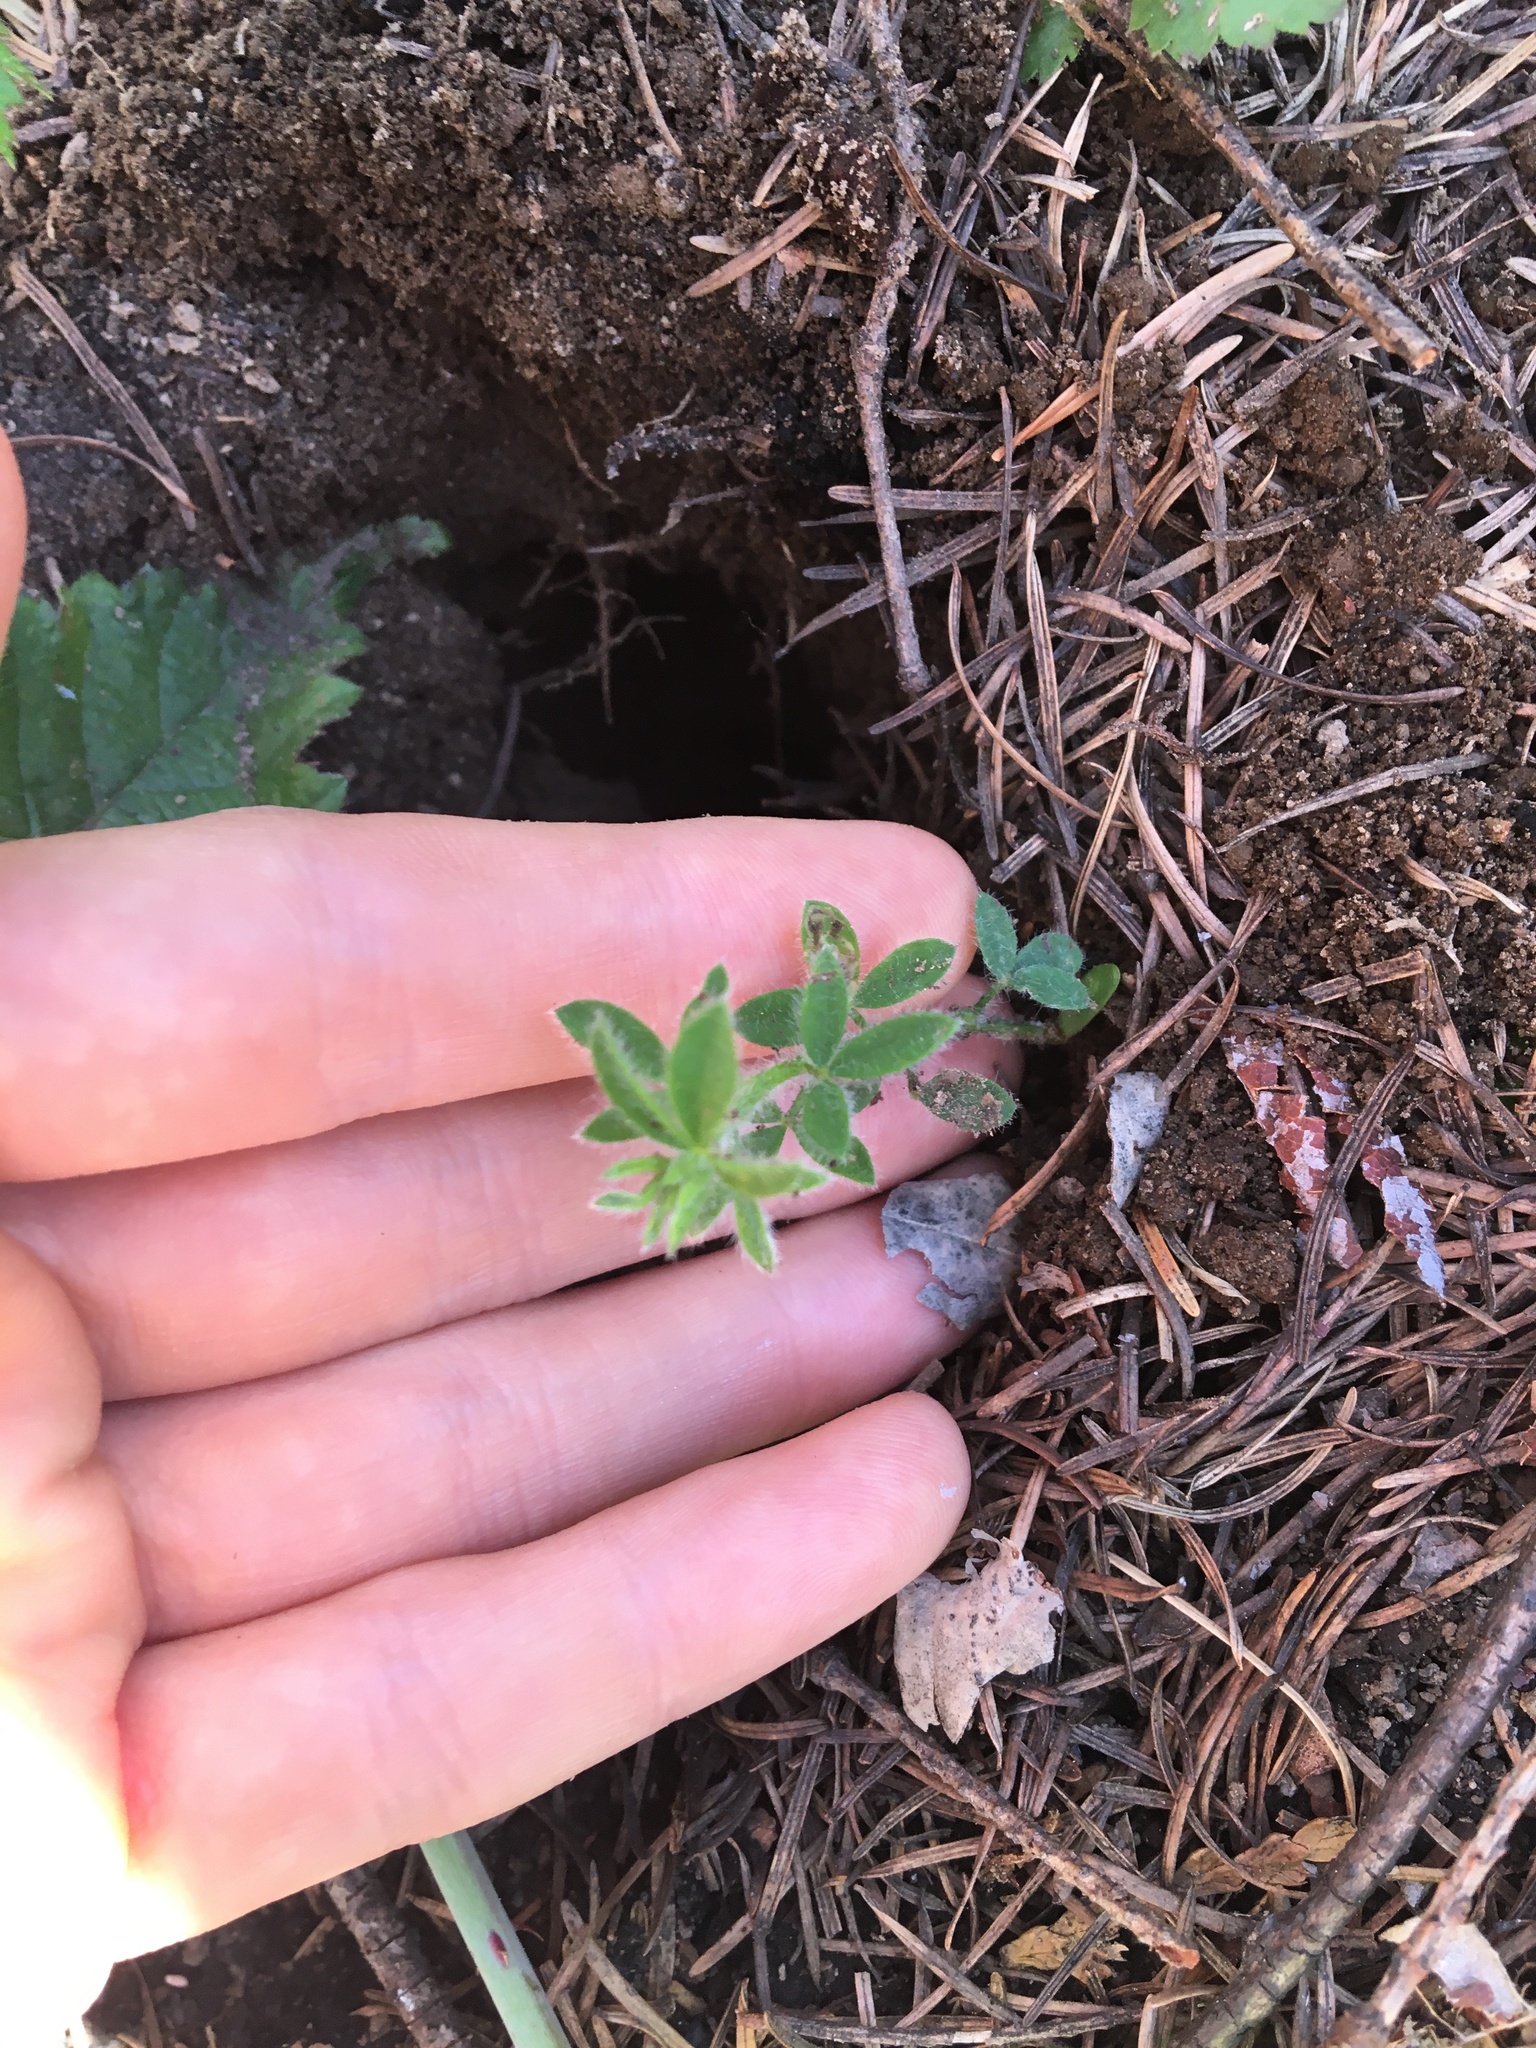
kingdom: Plantae
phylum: Tracheophyta
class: Magnoliopsida
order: Fabales
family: Fabaceae
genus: Cytisus
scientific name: Cytisus scoparius
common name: Scotch broom
